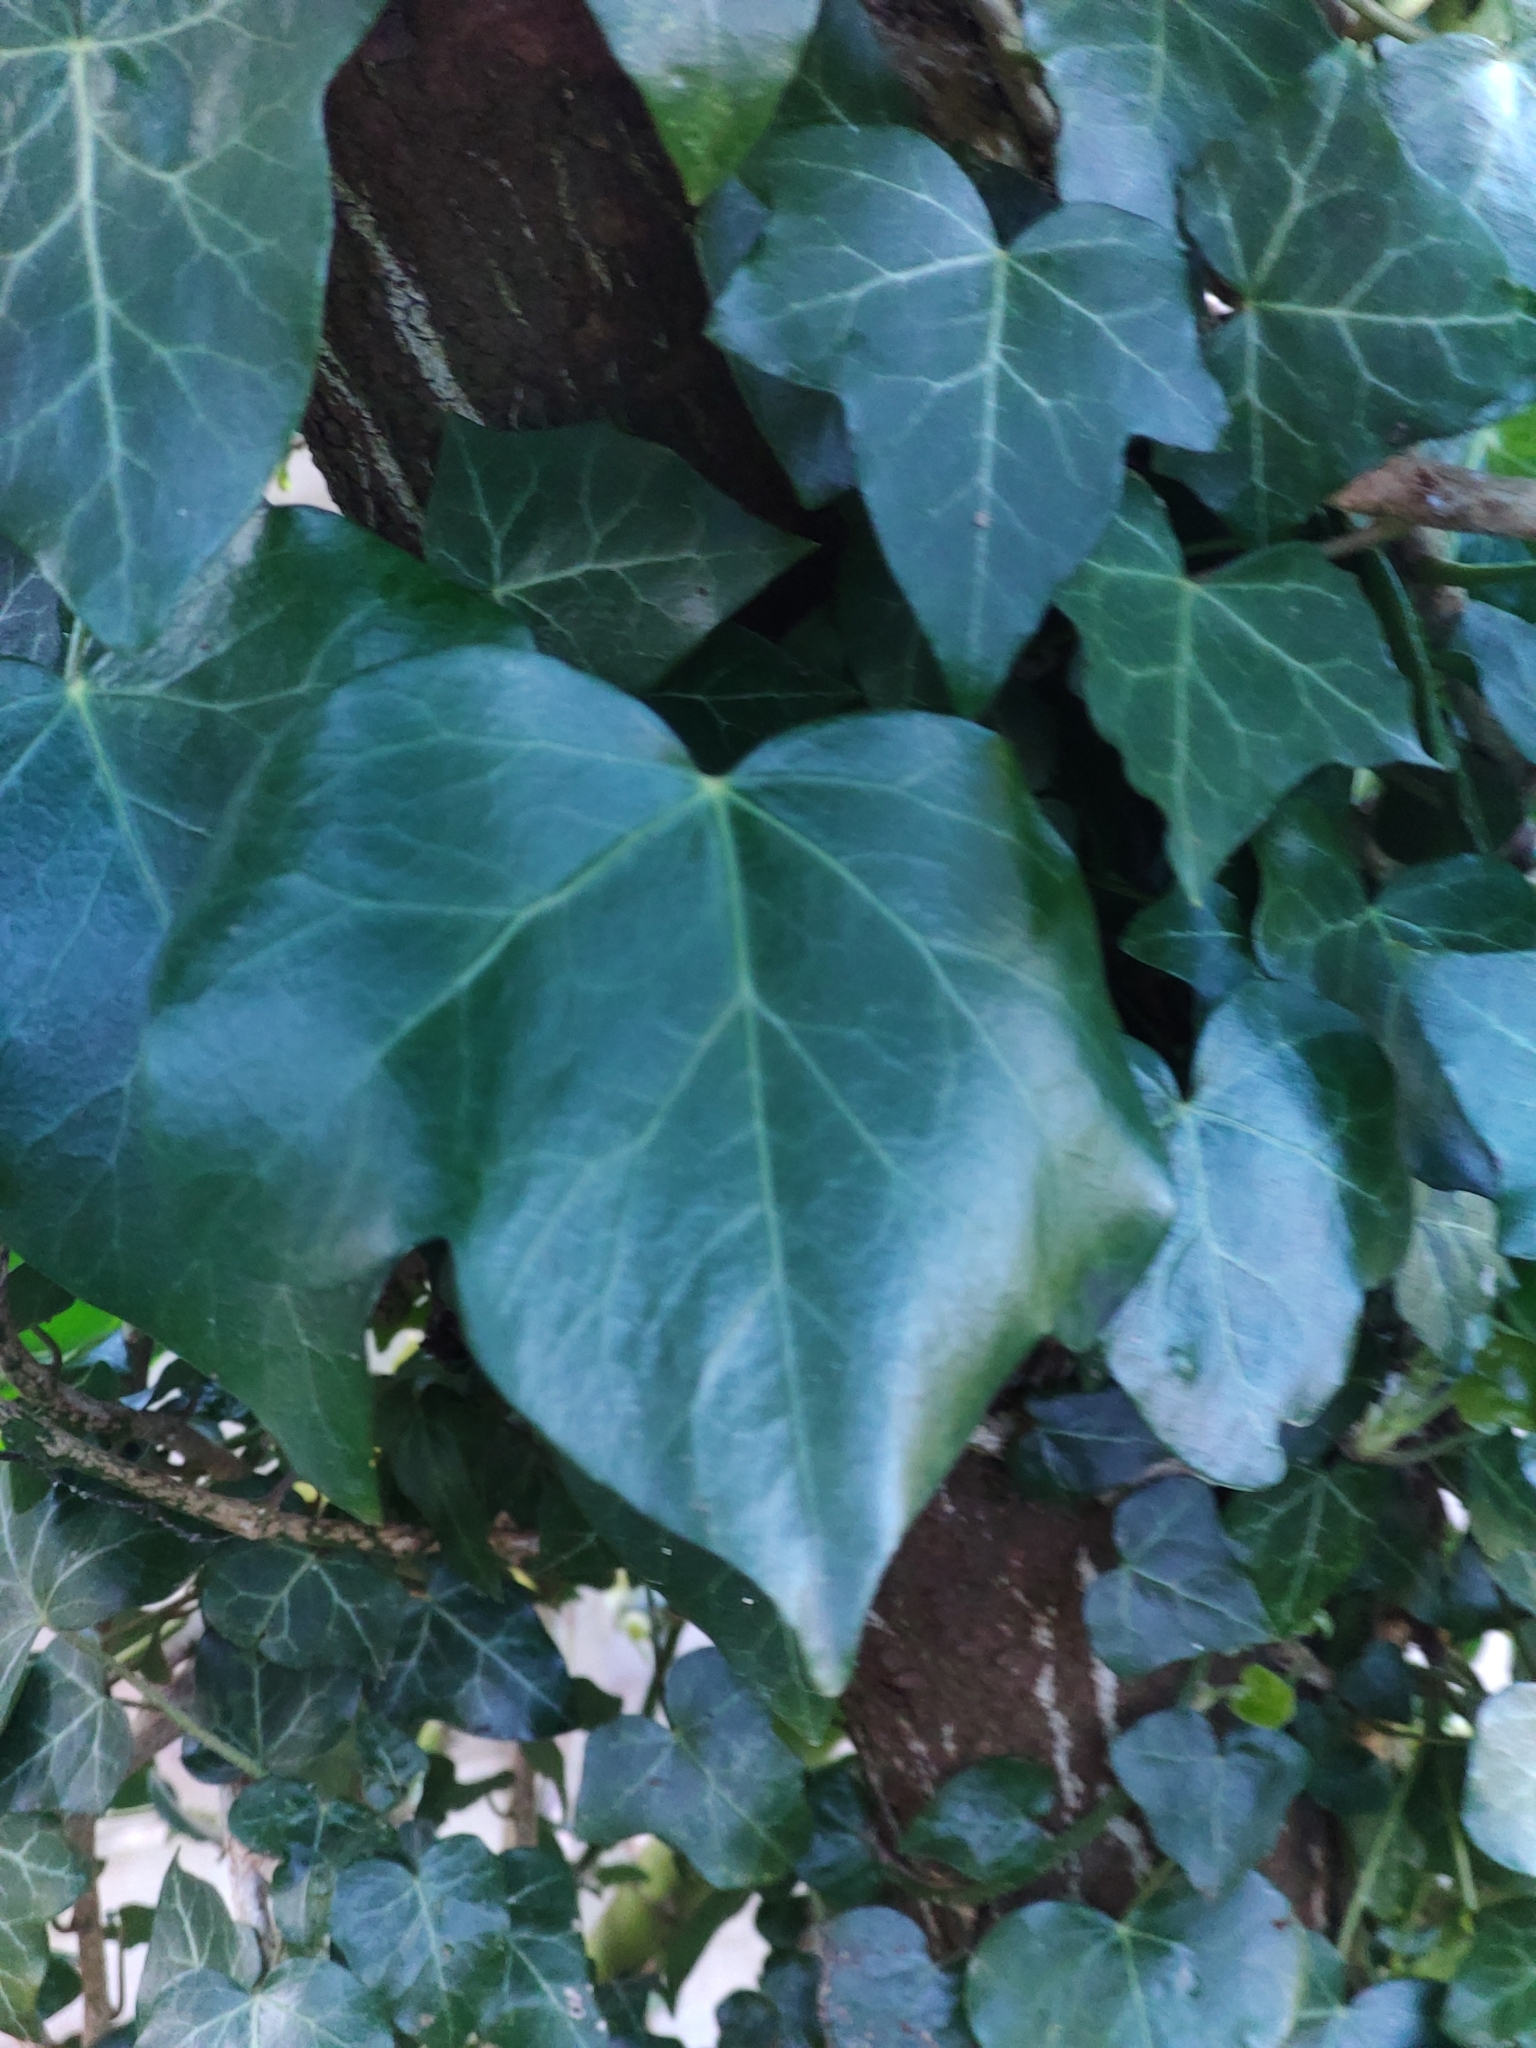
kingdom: Plantae
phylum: Tracheophyta
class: Magnoliopsida
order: Apiales
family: Araliaceae
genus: Hedera
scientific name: Hedera helix
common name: Ivy
